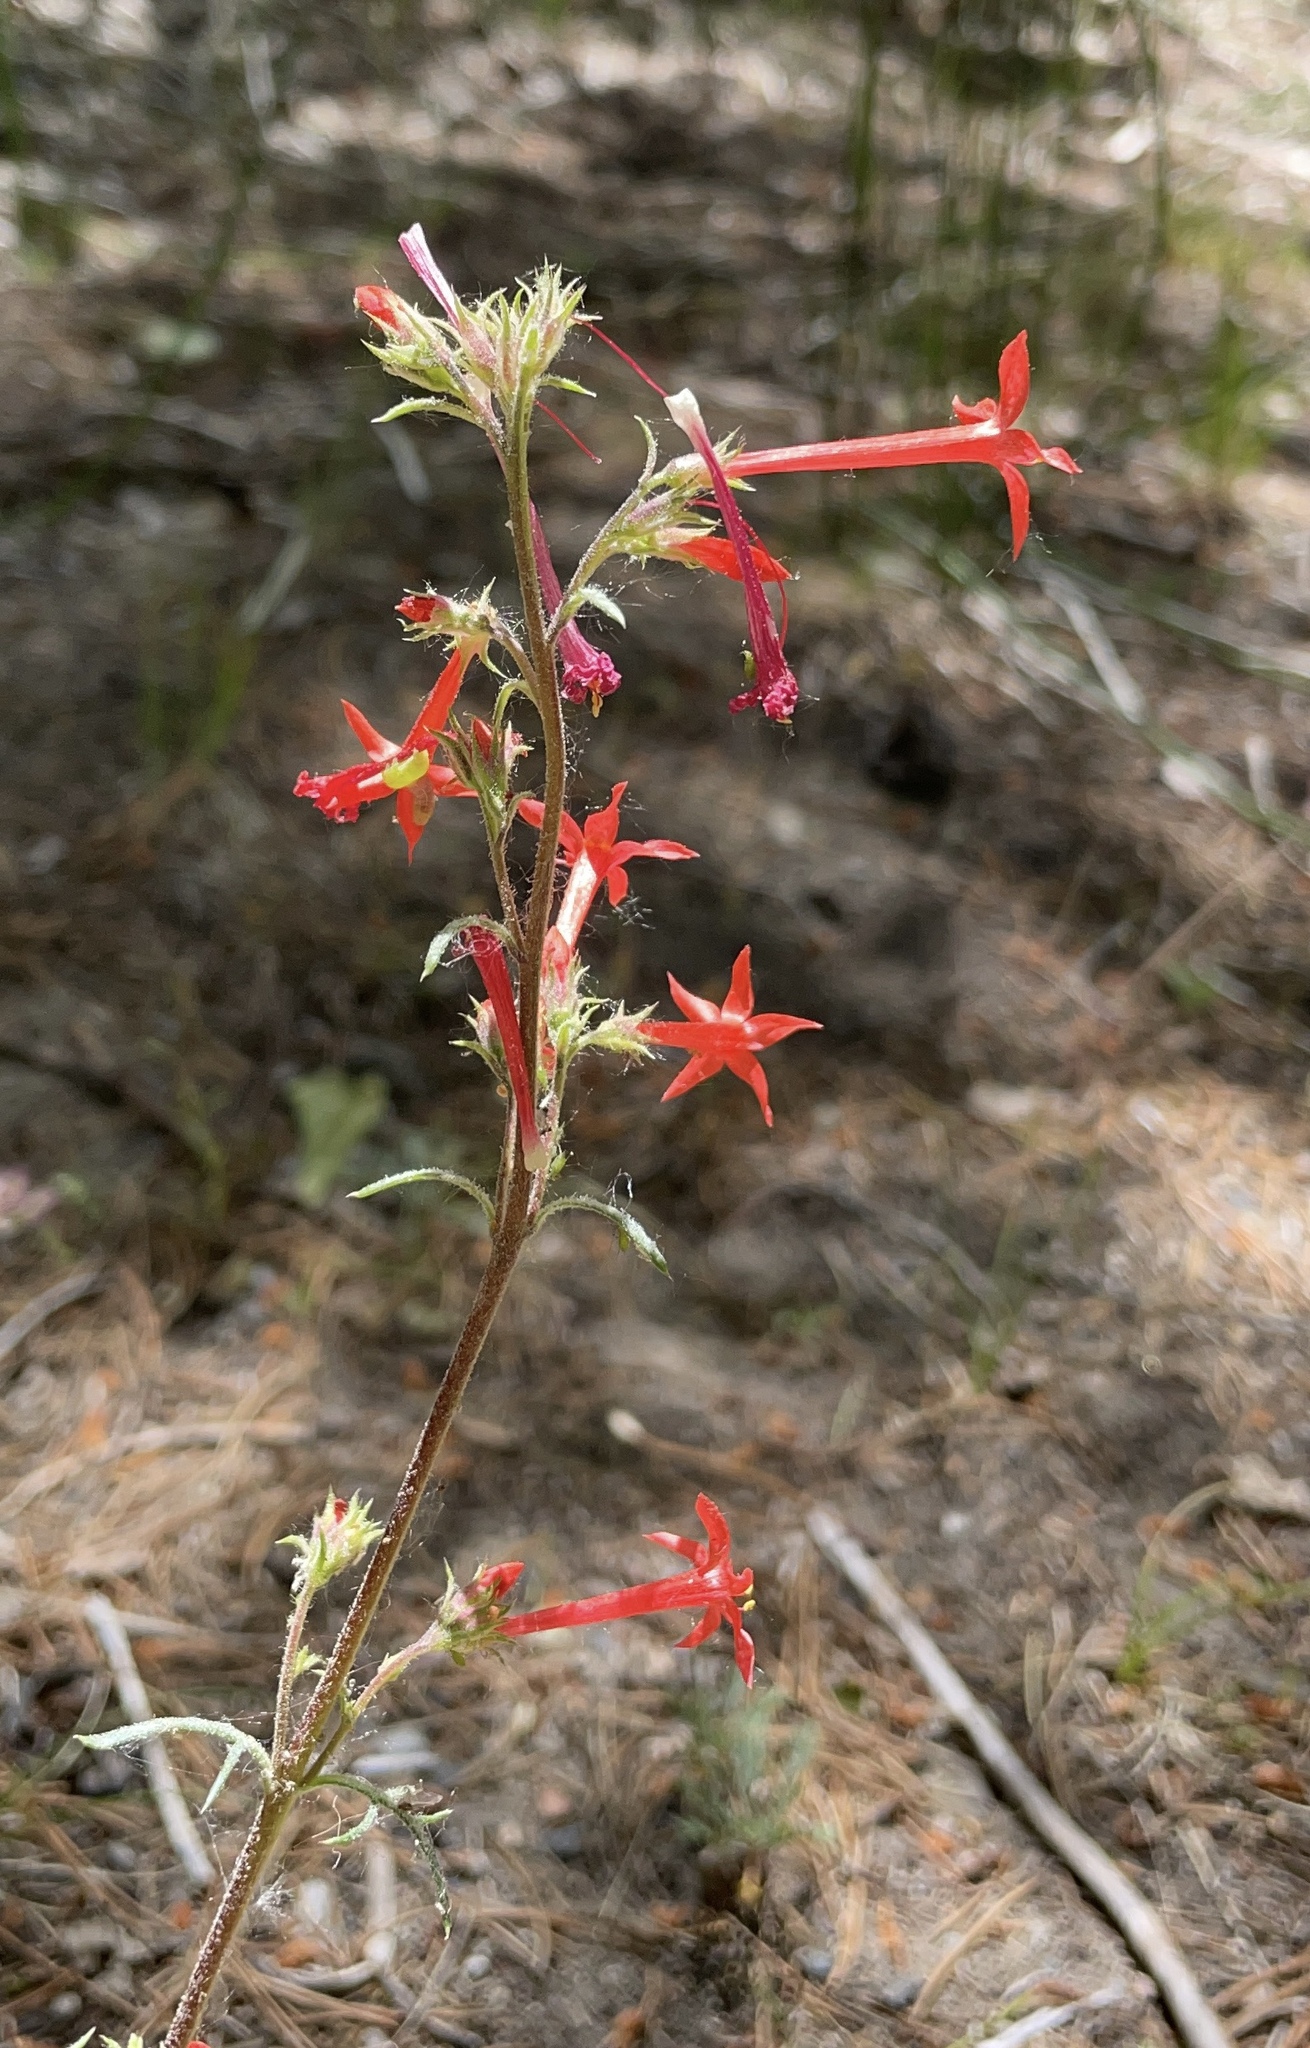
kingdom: Plantae
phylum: Tracheophyta
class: Magnoliopsida
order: Ericales
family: Polemoniaceae
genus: Ipomopsis
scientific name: Ipomopsis aggregata
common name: Scarlet gilia
